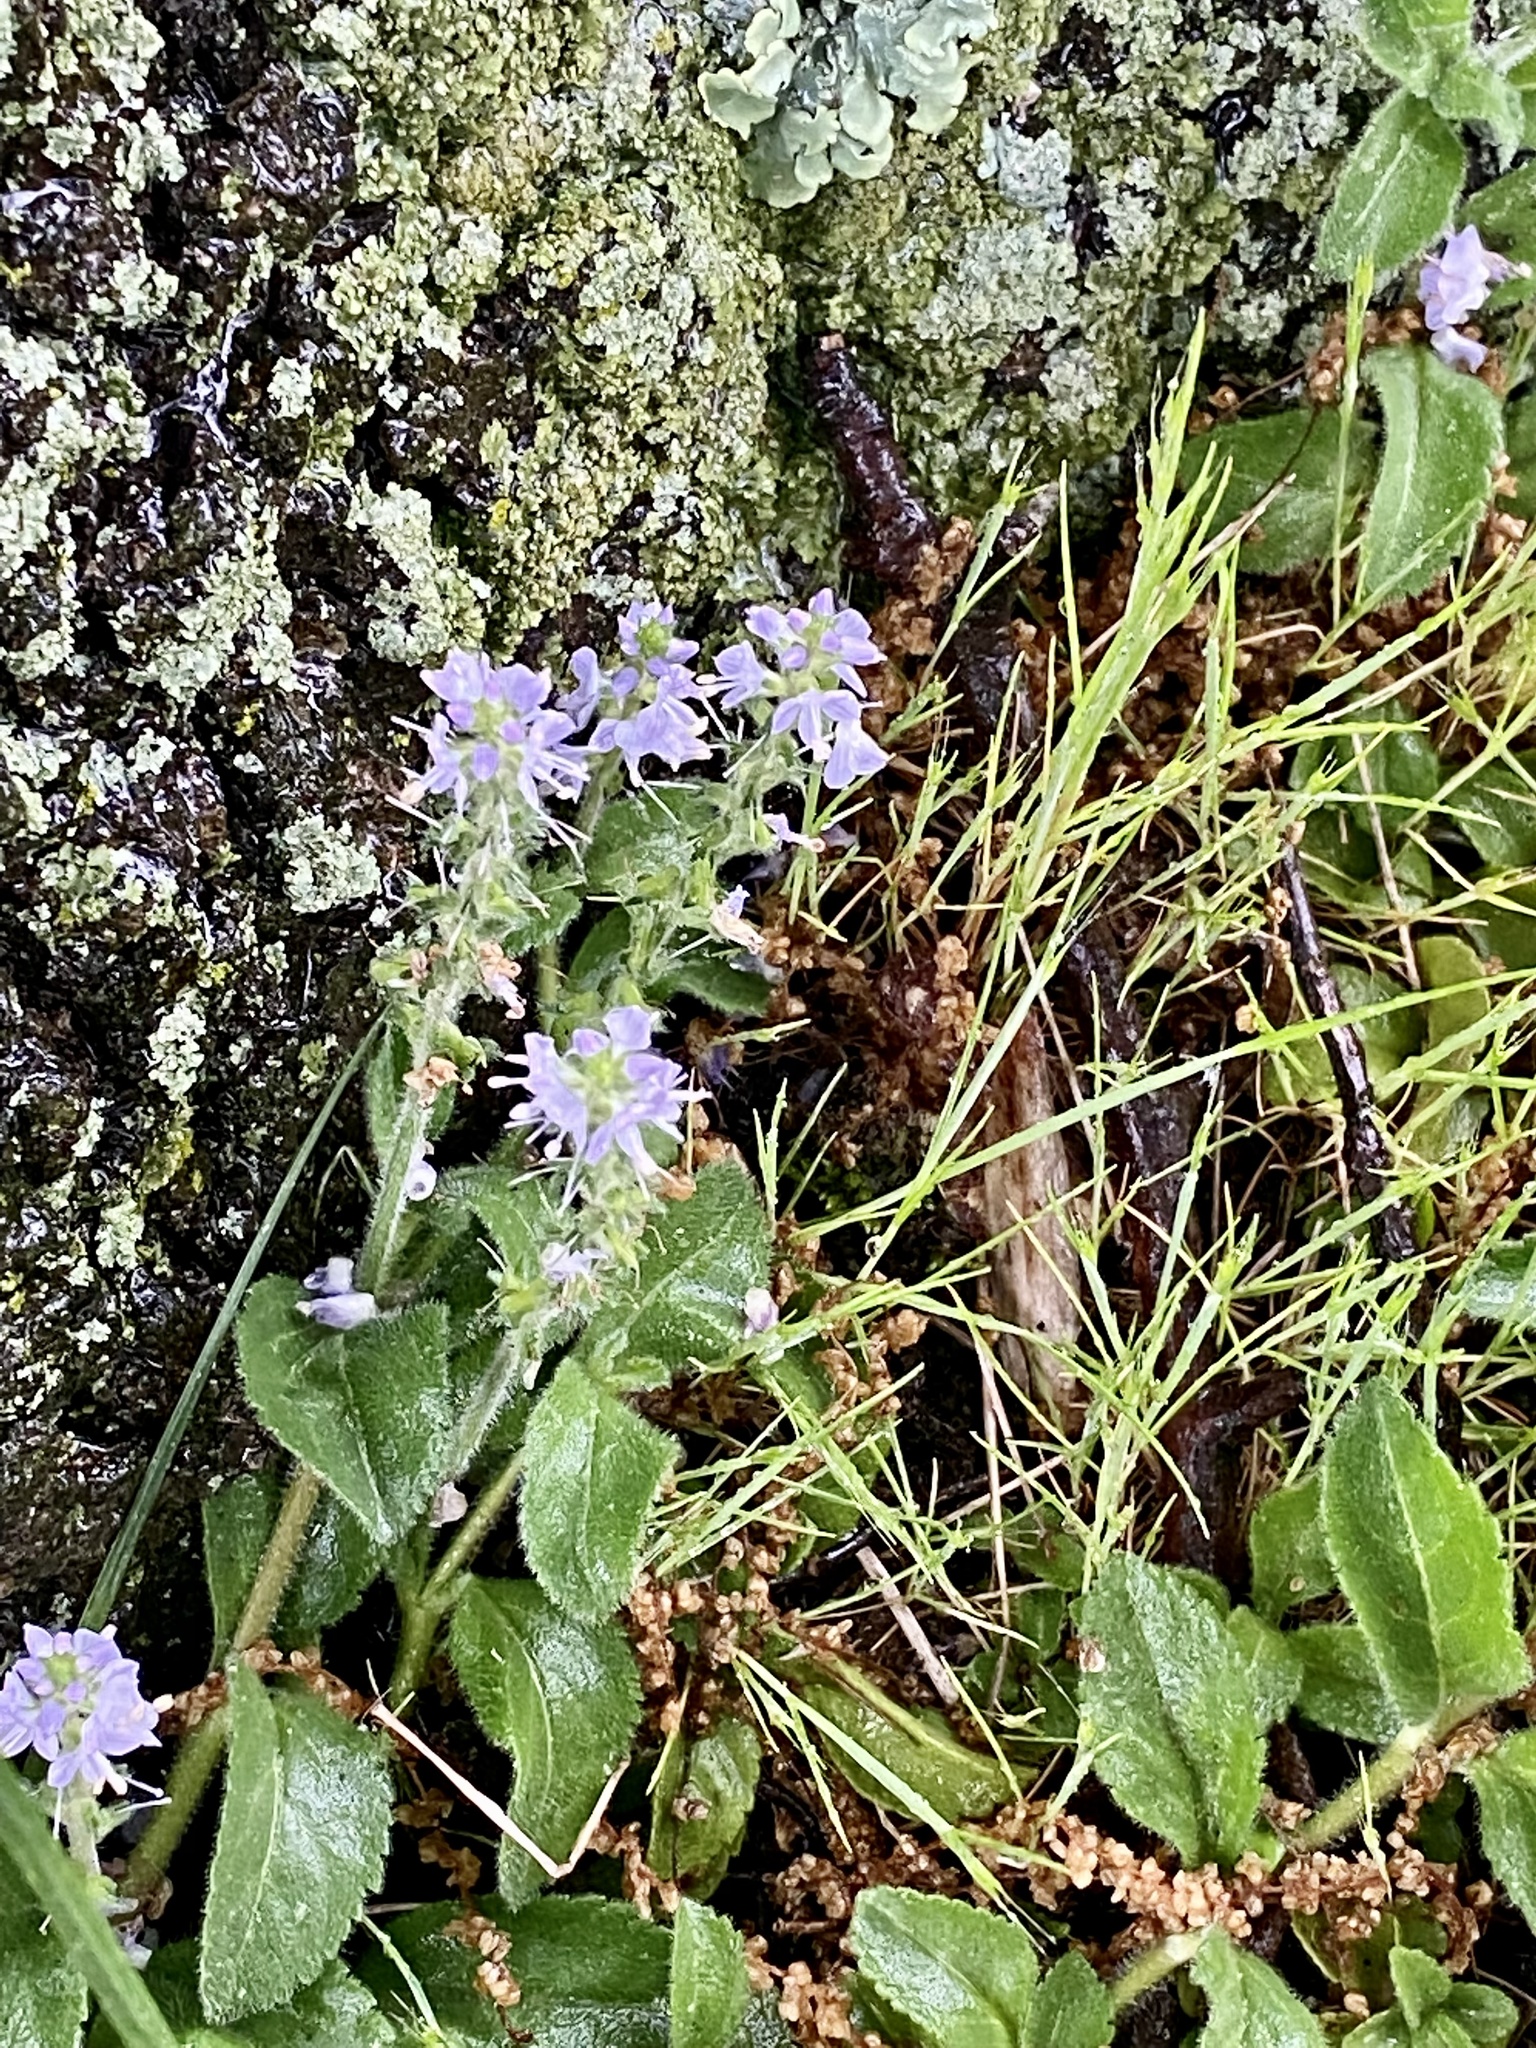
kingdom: Plantae
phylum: Tracheophyta
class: Magnoliopsida
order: Lamiales
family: Plantaginaceae
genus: Veronica
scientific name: Veronica officinalis
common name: Common speedwell
